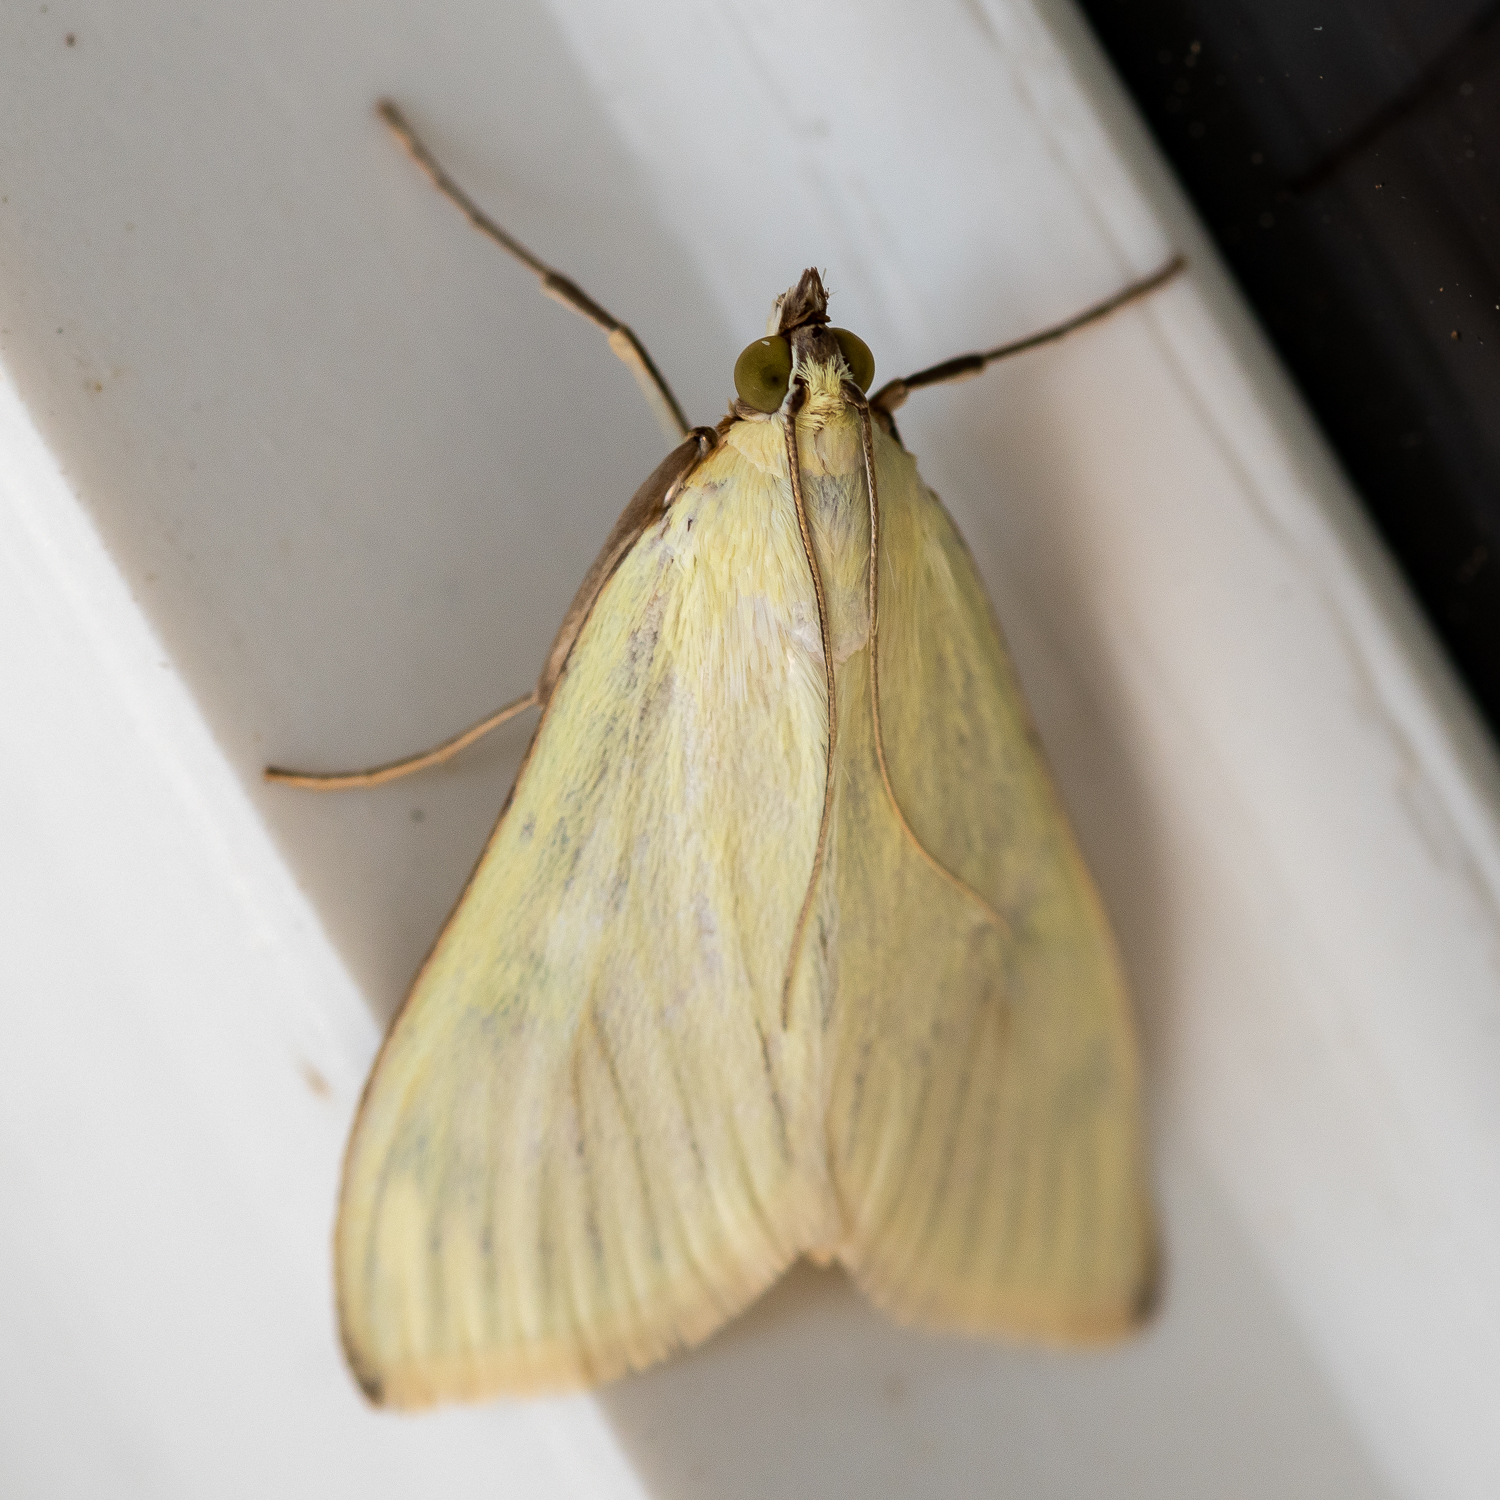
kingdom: Animalia
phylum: Arthropoda
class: Insecta
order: Lepidoptera
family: Crambidae
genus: Sitochroa
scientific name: Sitochroa palealis
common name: Greenish-yellow sitochroa moth
